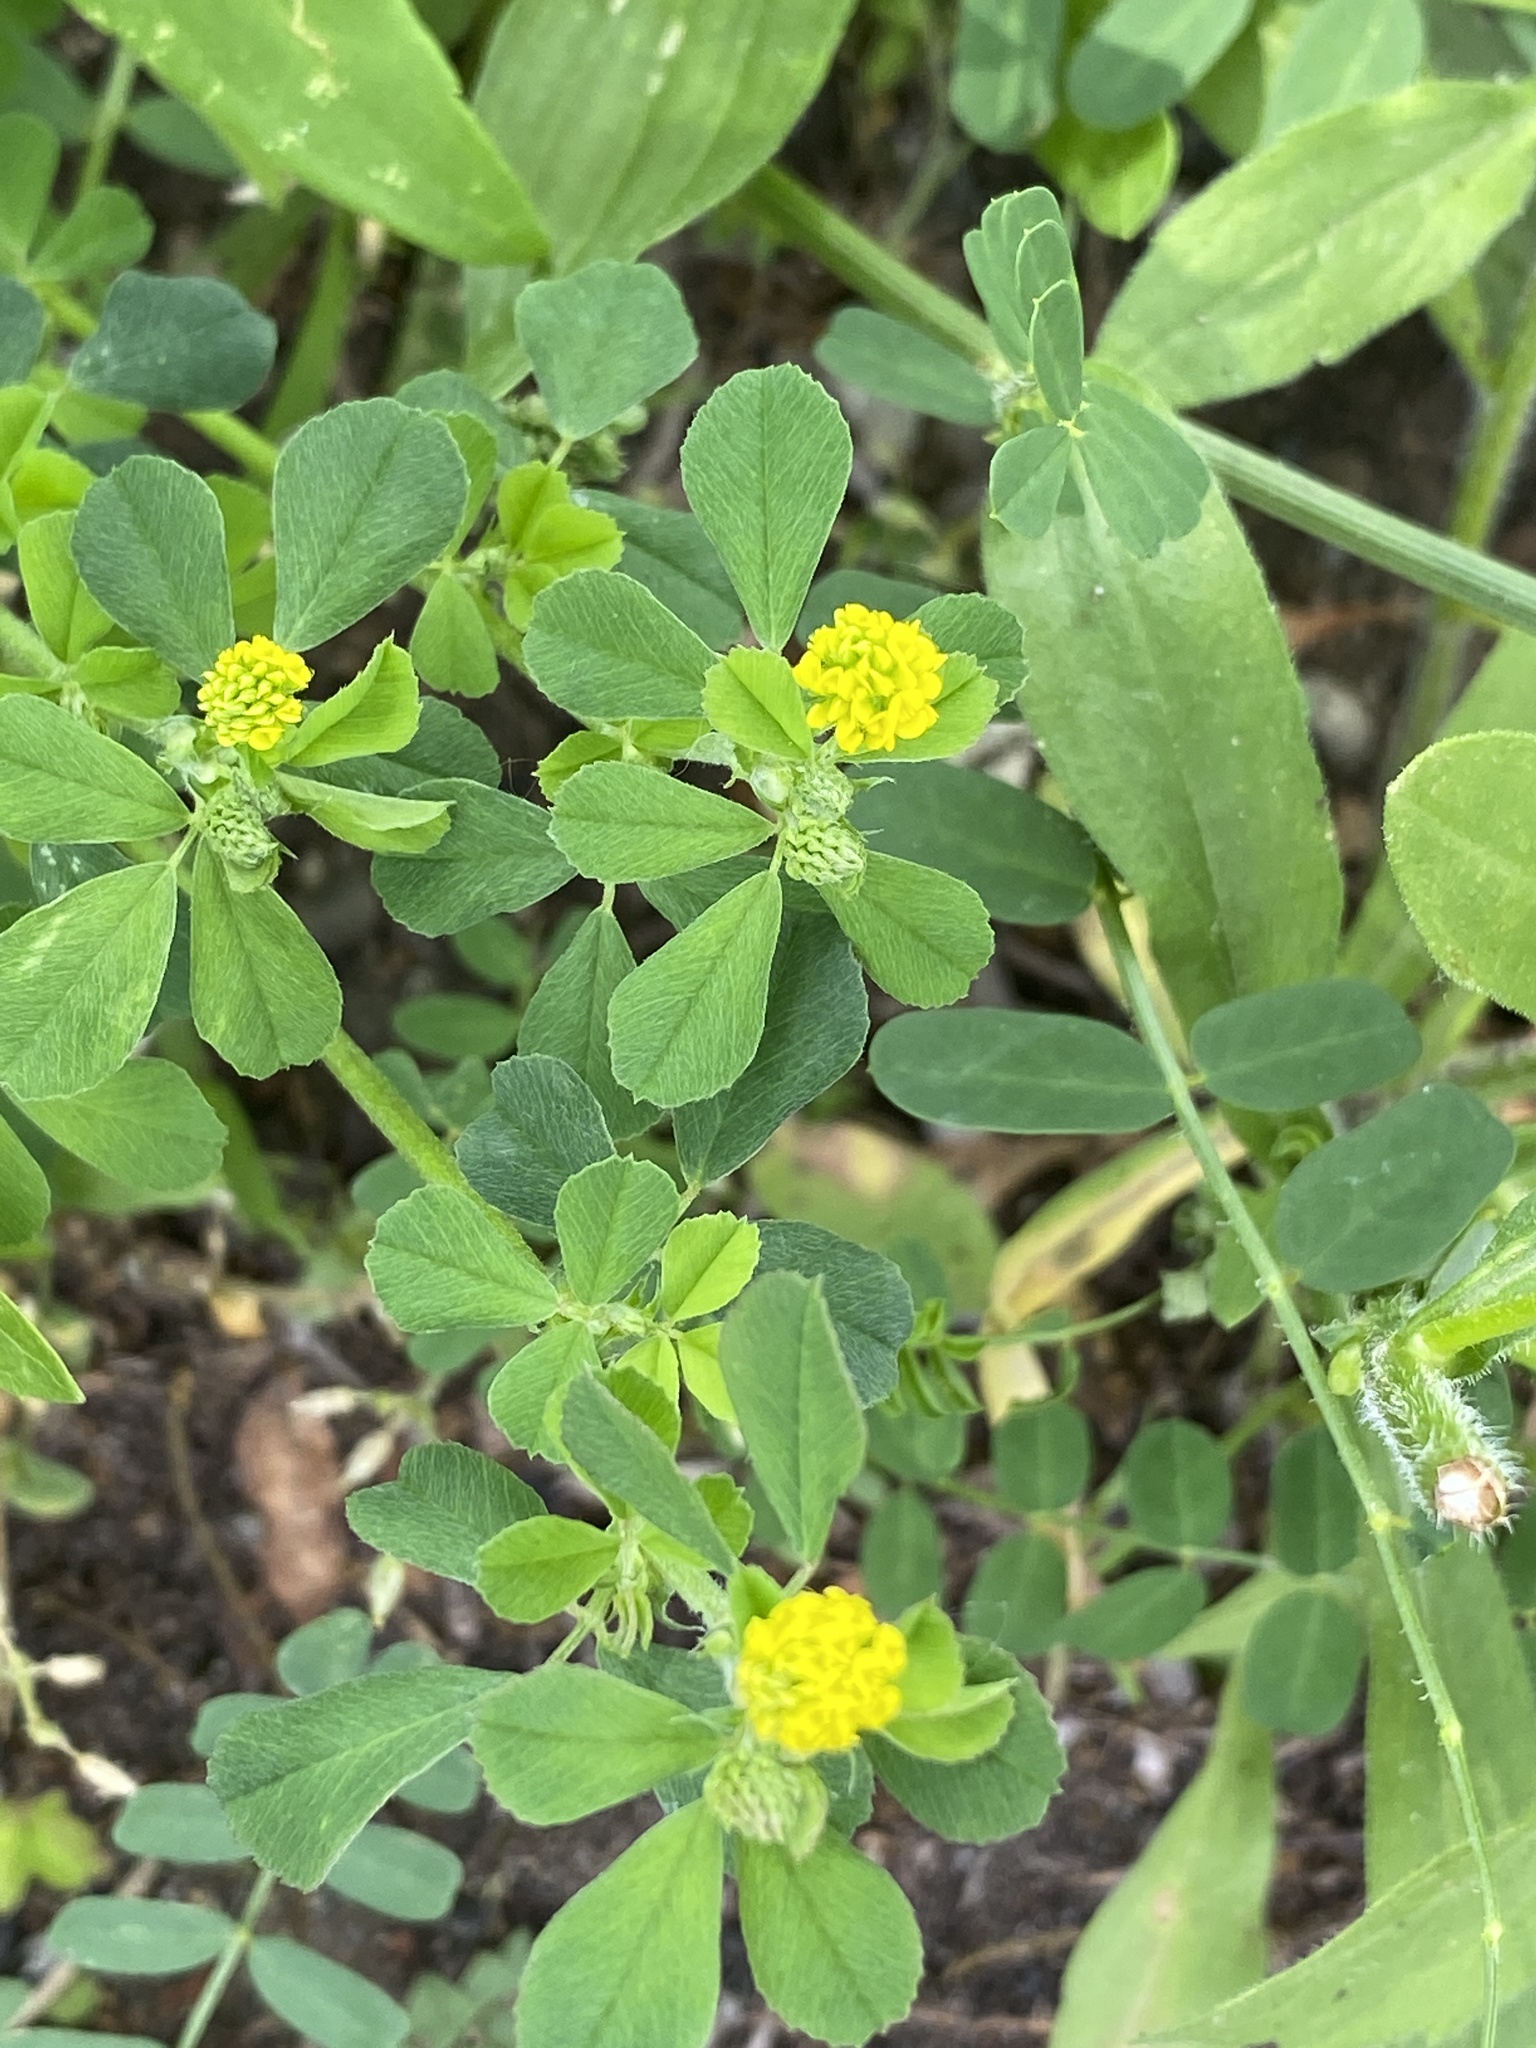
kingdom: Plantae
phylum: Tracheophyta
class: Magnoliopsida
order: Fabales
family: Fabaceae
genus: Medicago
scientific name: Medicago lupulina
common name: Black medick
